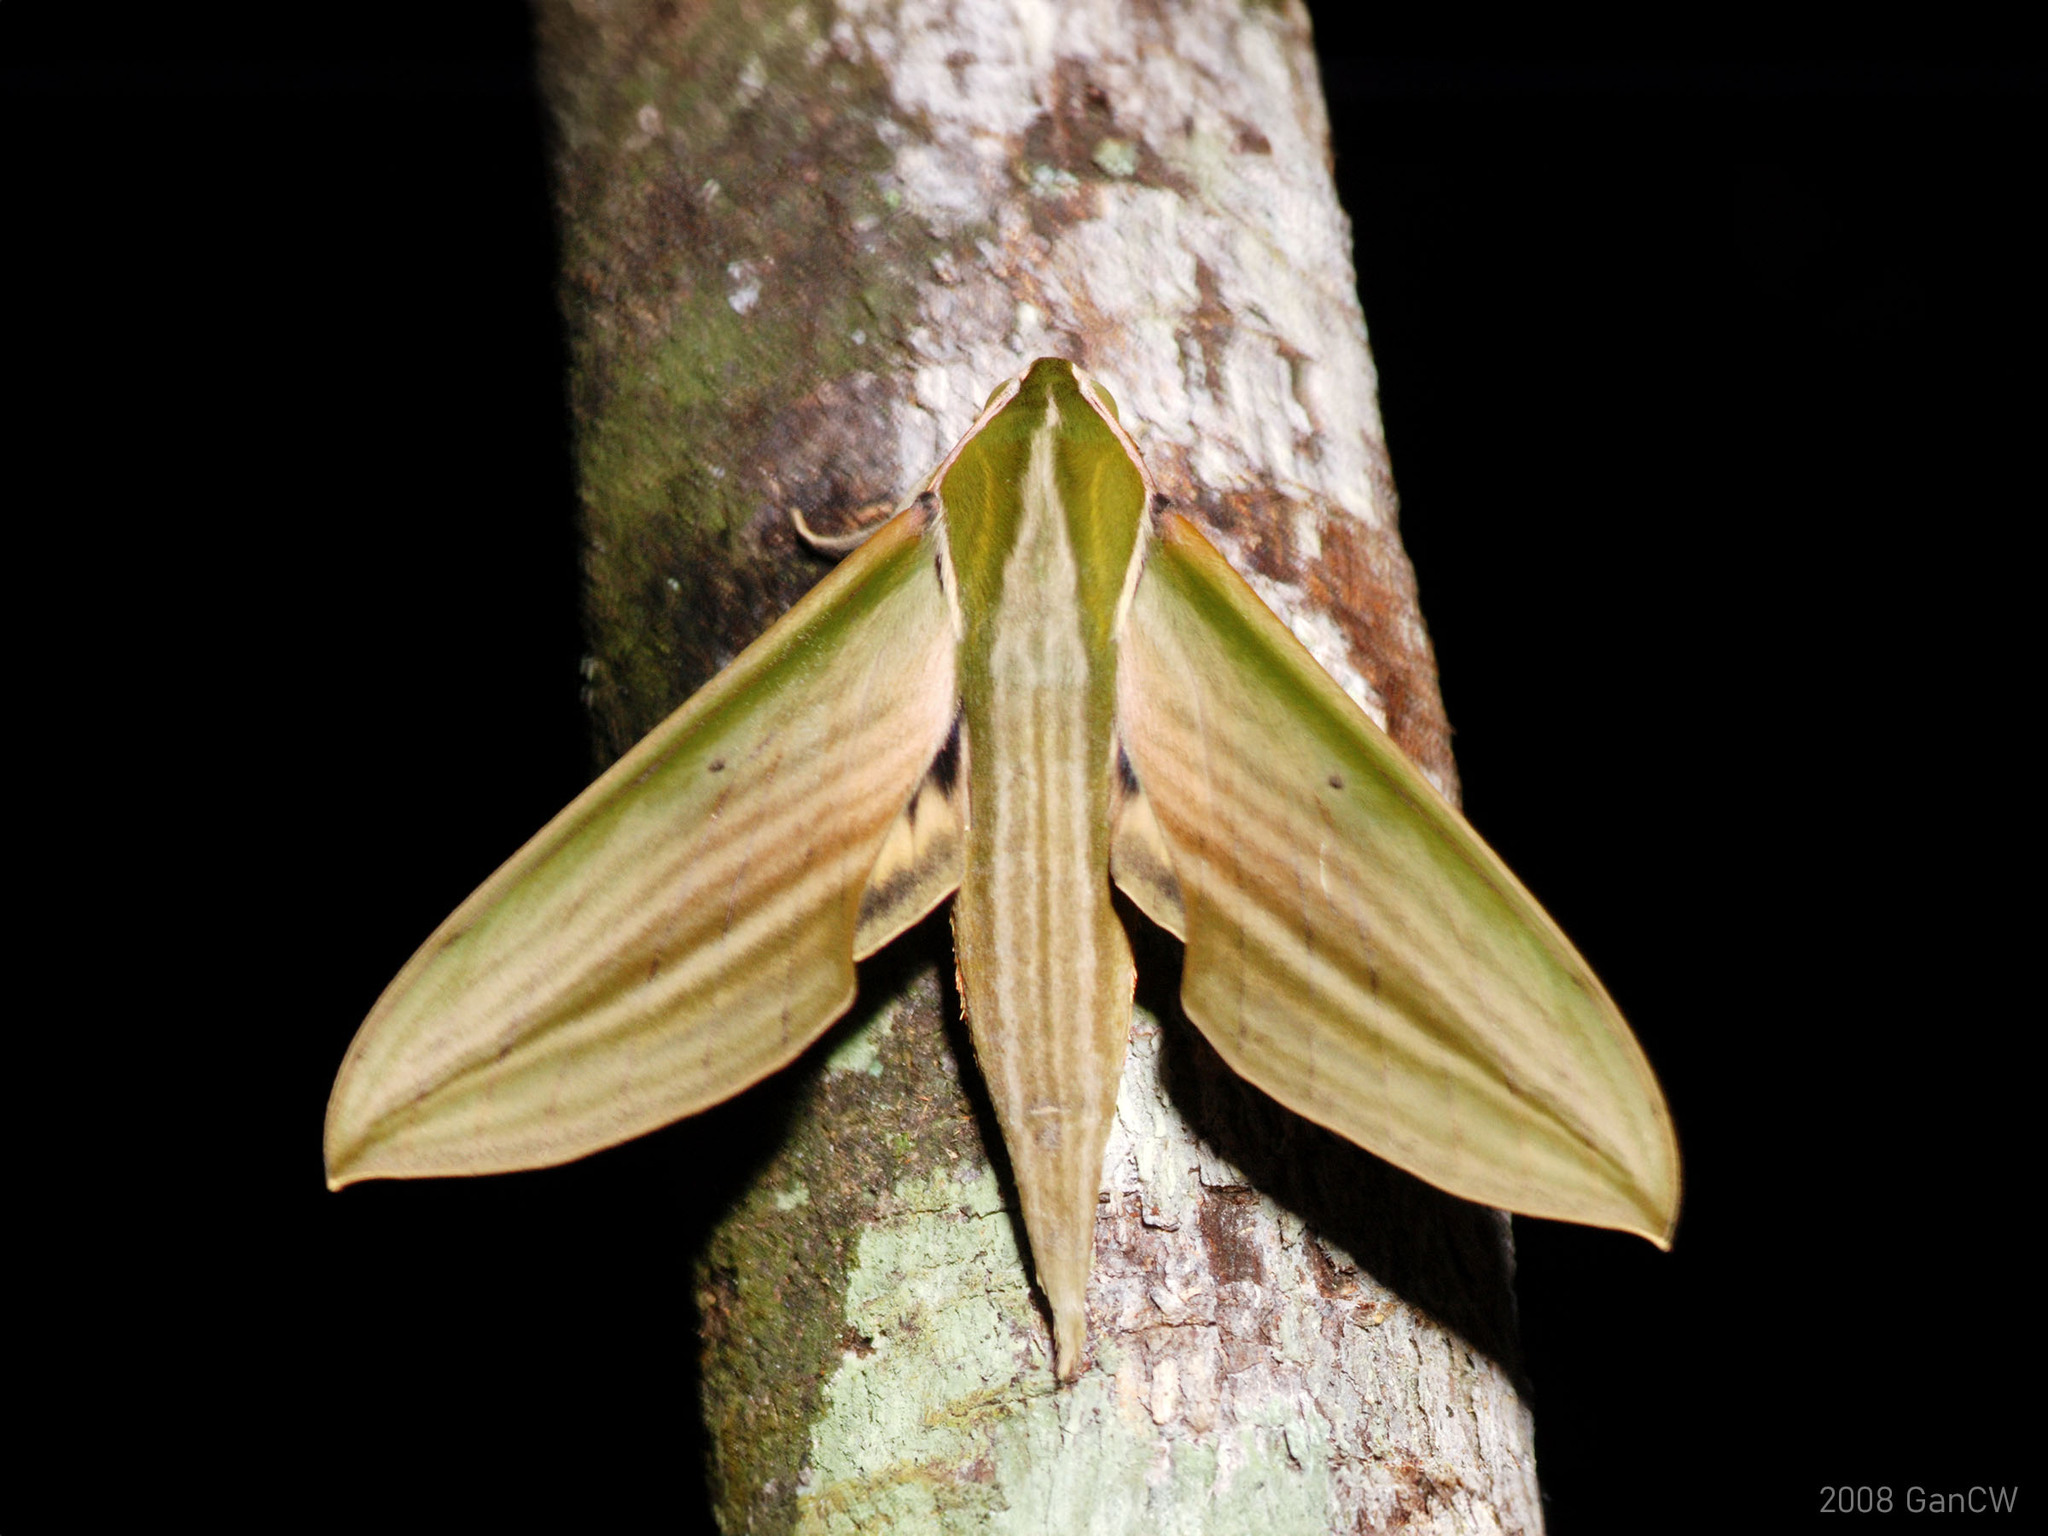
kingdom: Animalia
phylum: Arthropoda
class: Insecta
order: Lepidoptera
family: Sphingidae
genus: Cechetra
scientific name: Cechetra lineosa
